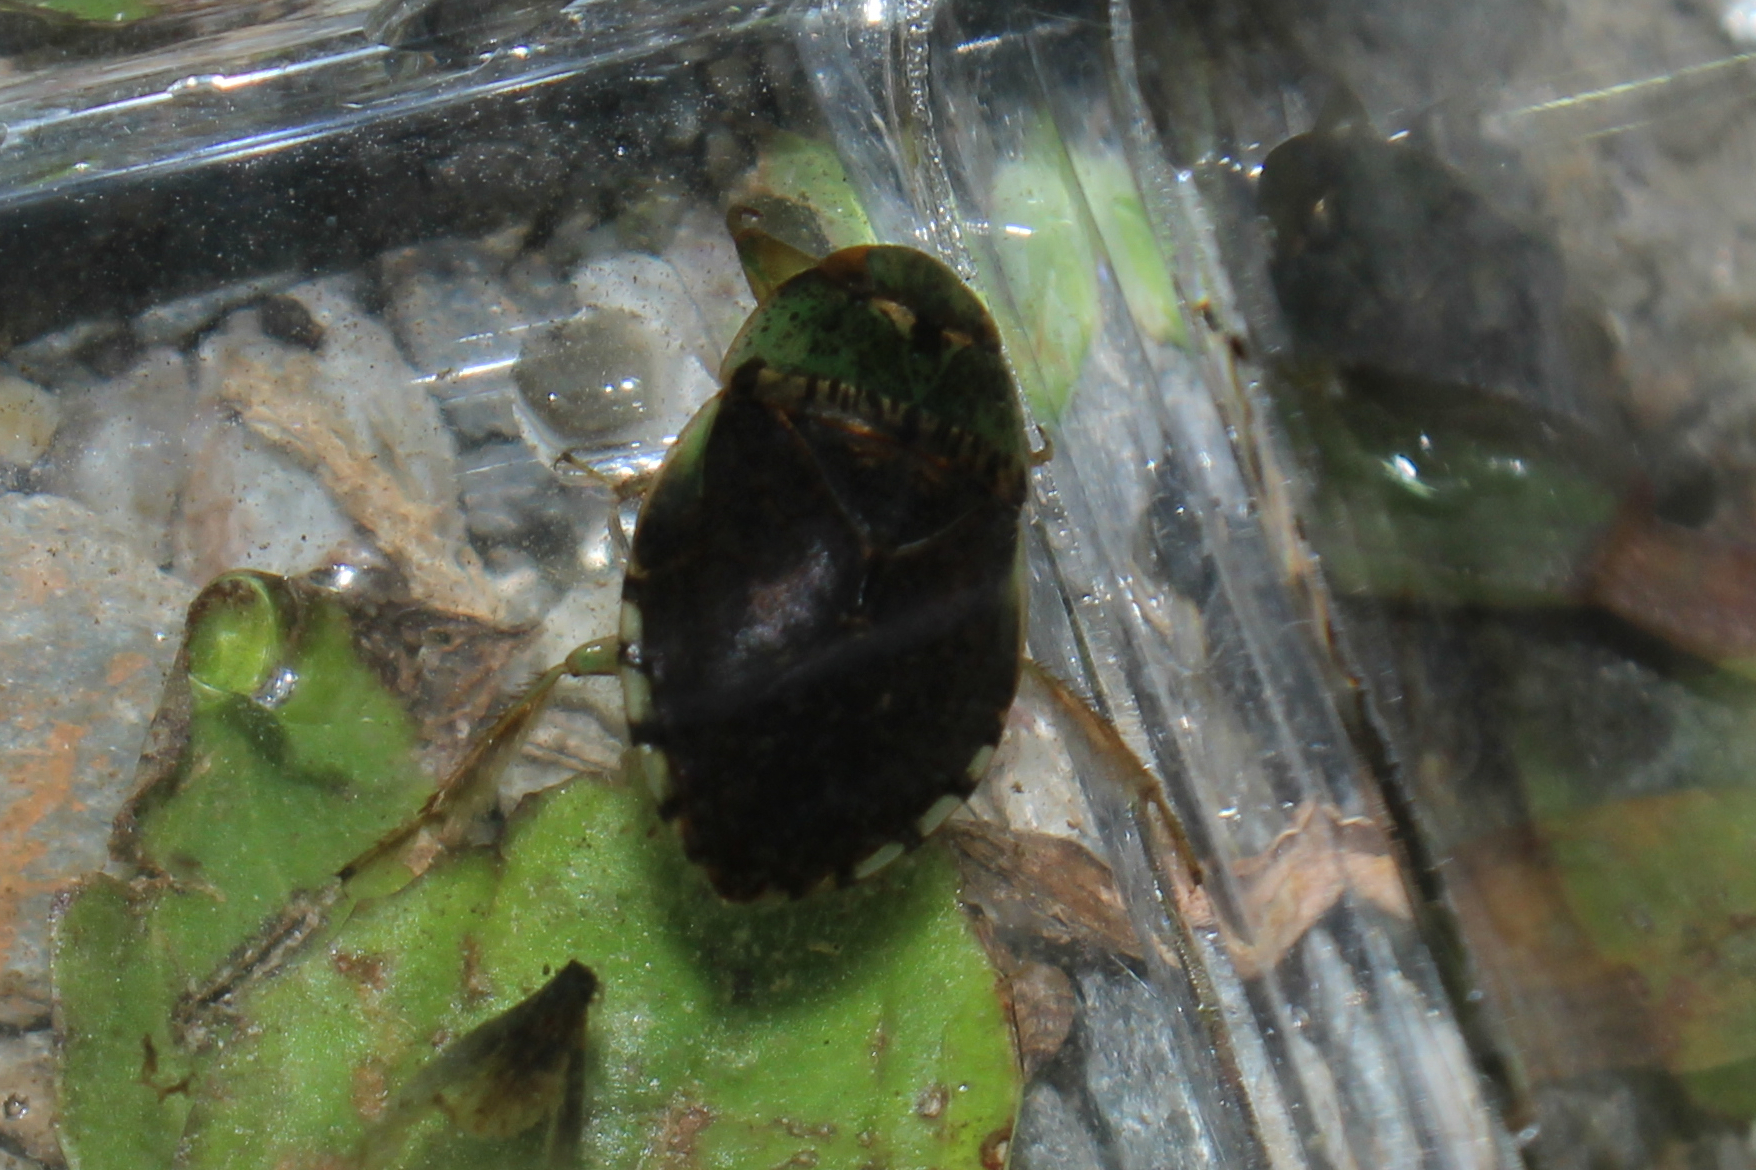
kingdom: Animalia
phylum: Arthropoda
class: Insecta
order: Hemiptera
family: Naucoridae
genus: Pelocoris
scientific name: Pelocoris femoratus
